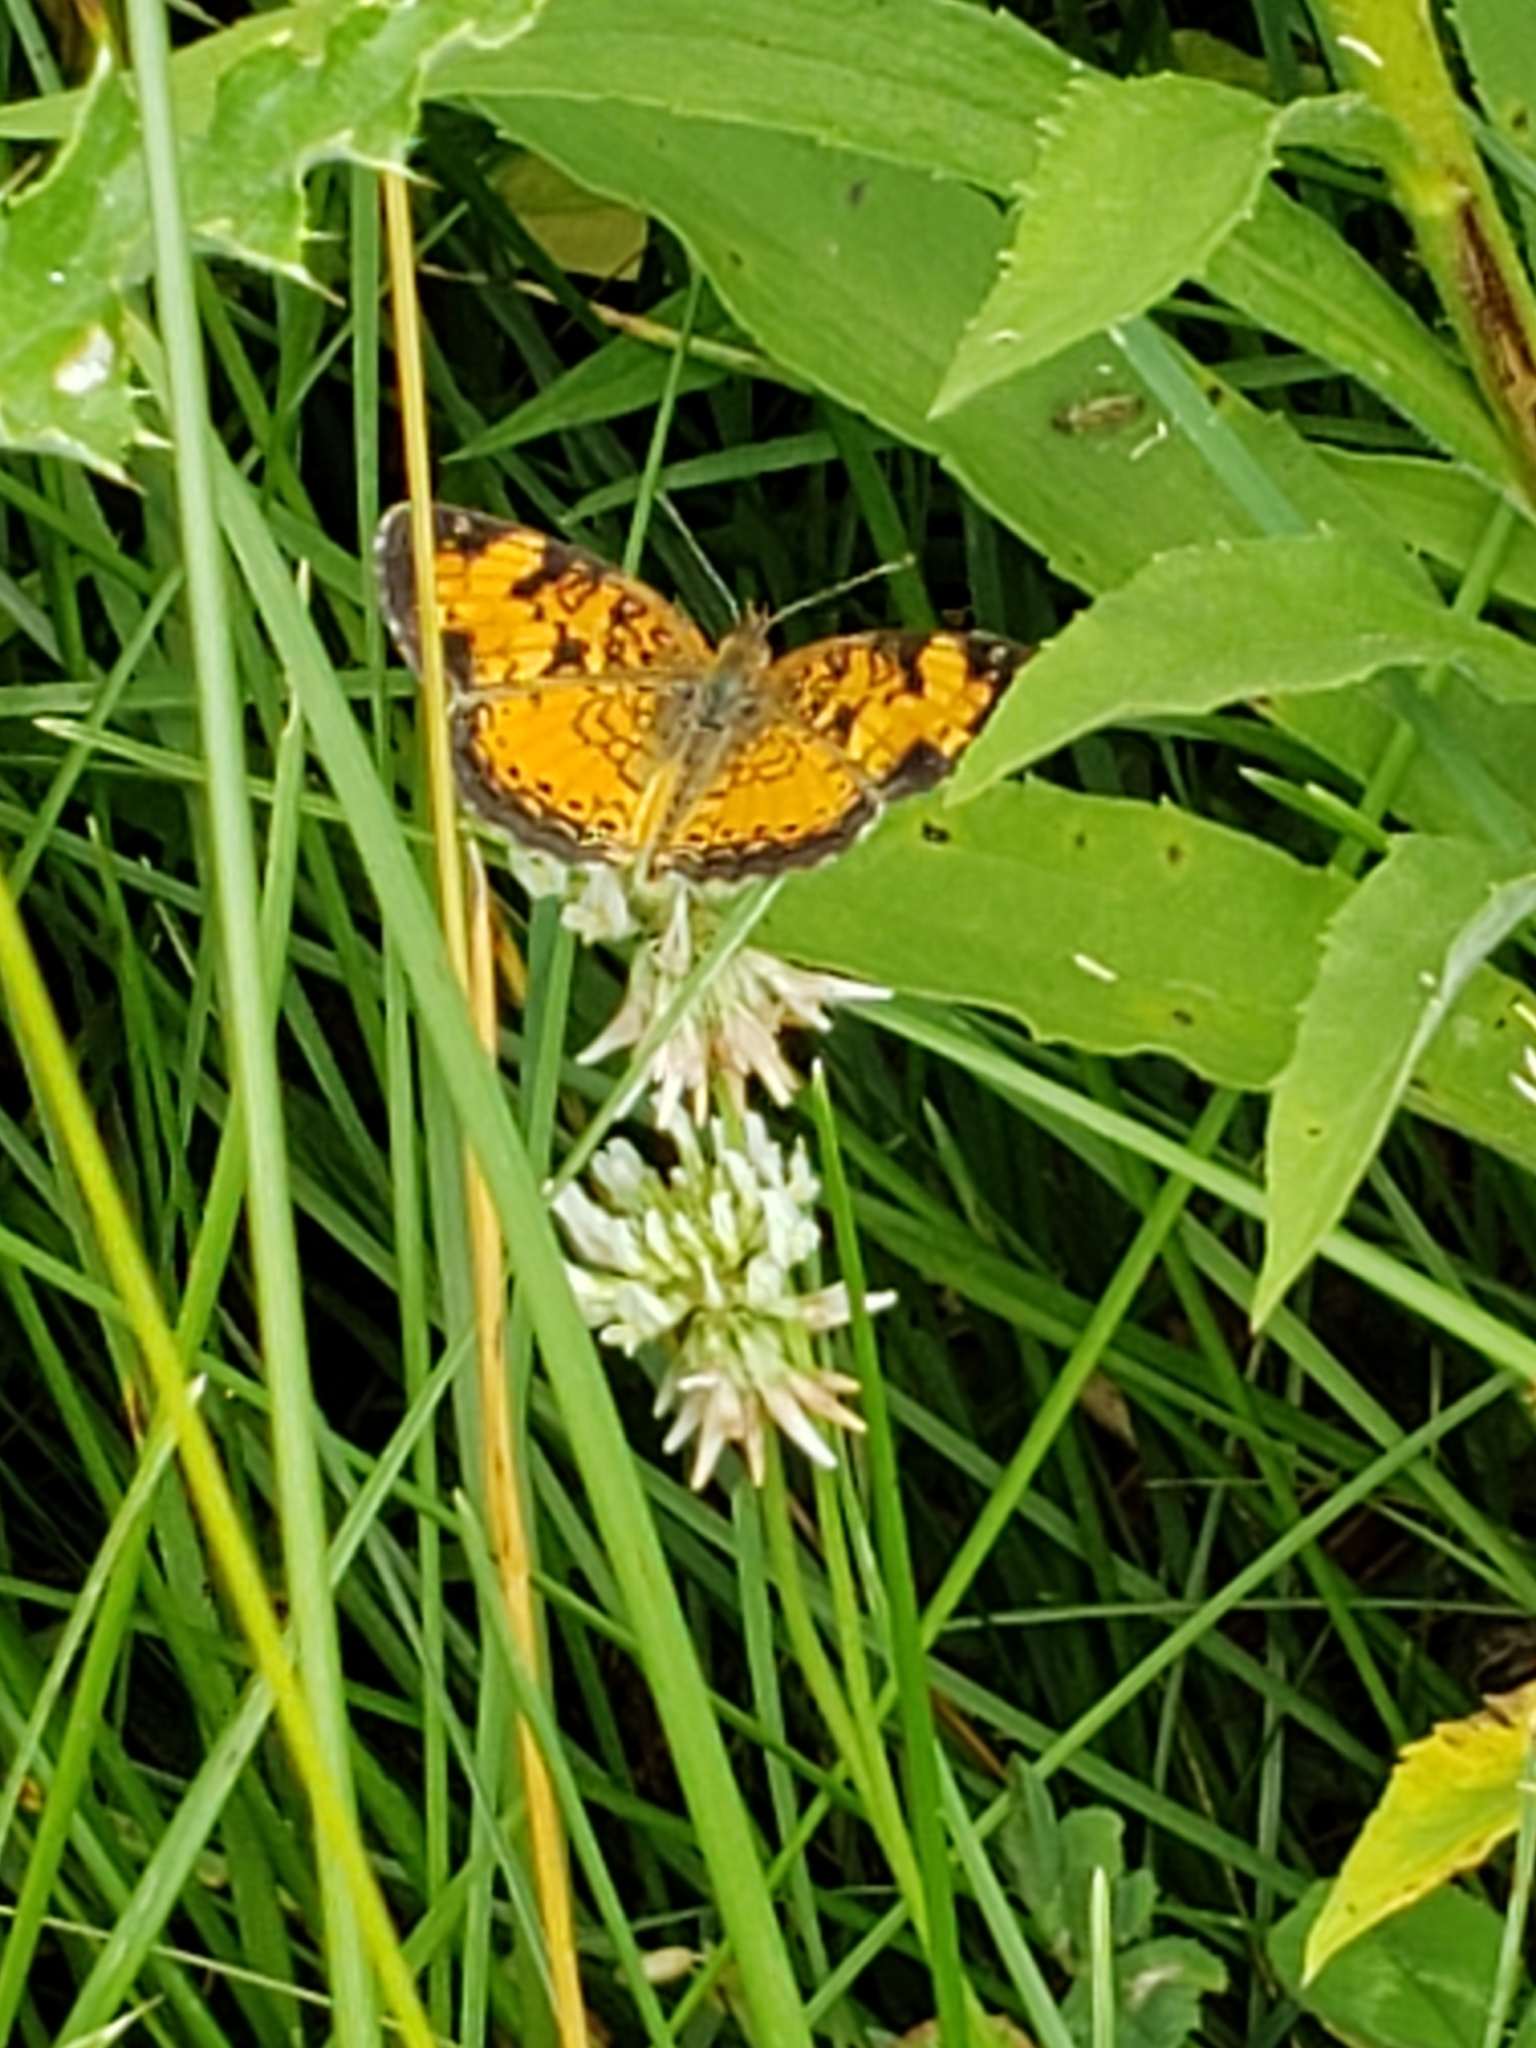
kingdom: Animalia
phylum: Arthropoda
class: Insecta
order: Lepidoptera
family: Nymphalidae
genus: Phyciodes
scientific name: Phyciodes tharos
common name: Pearl crescent
